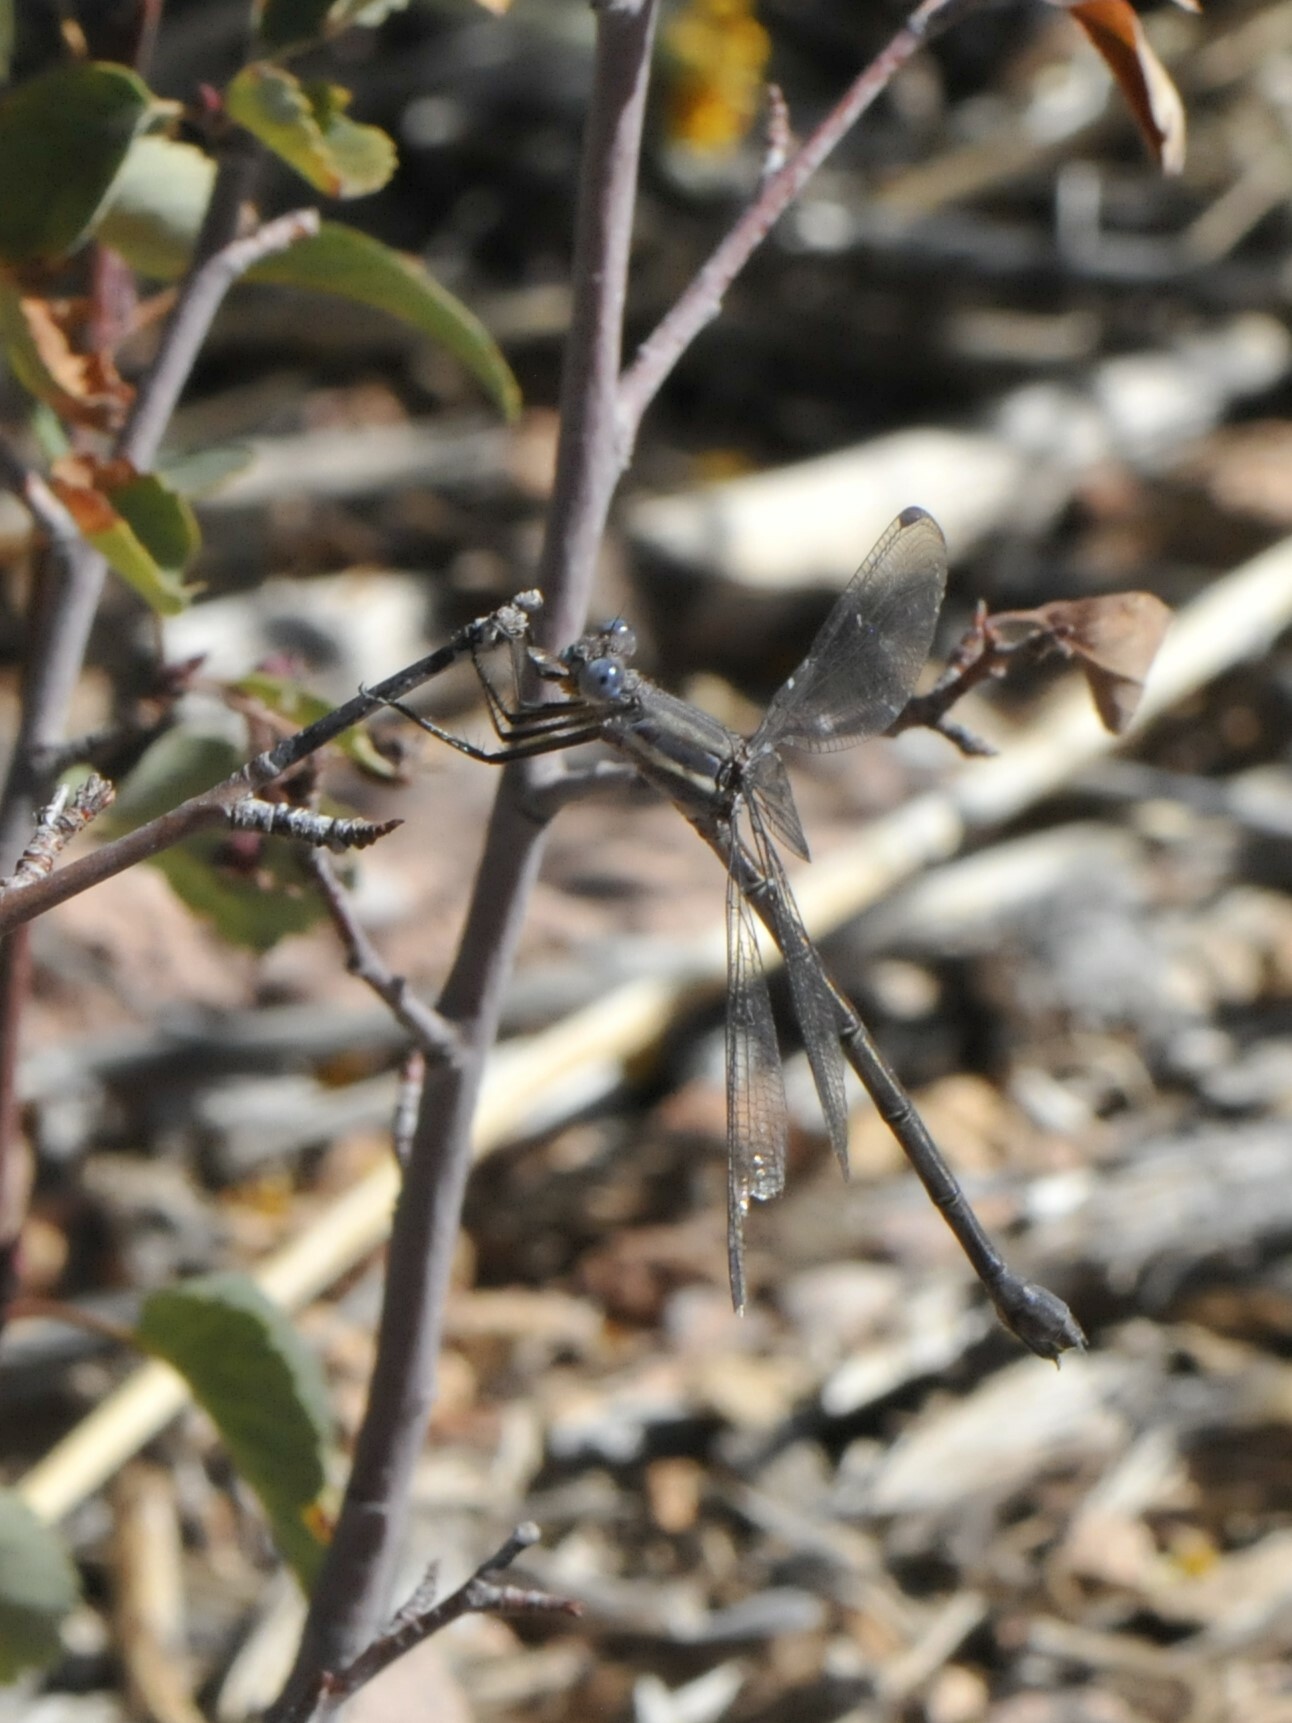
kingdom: Animalia
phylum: Arthropoda
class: Insecta
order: Odonata
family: Lestidae
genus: Archilestes
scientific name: Archilestes grandis
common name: Great spreadwing
